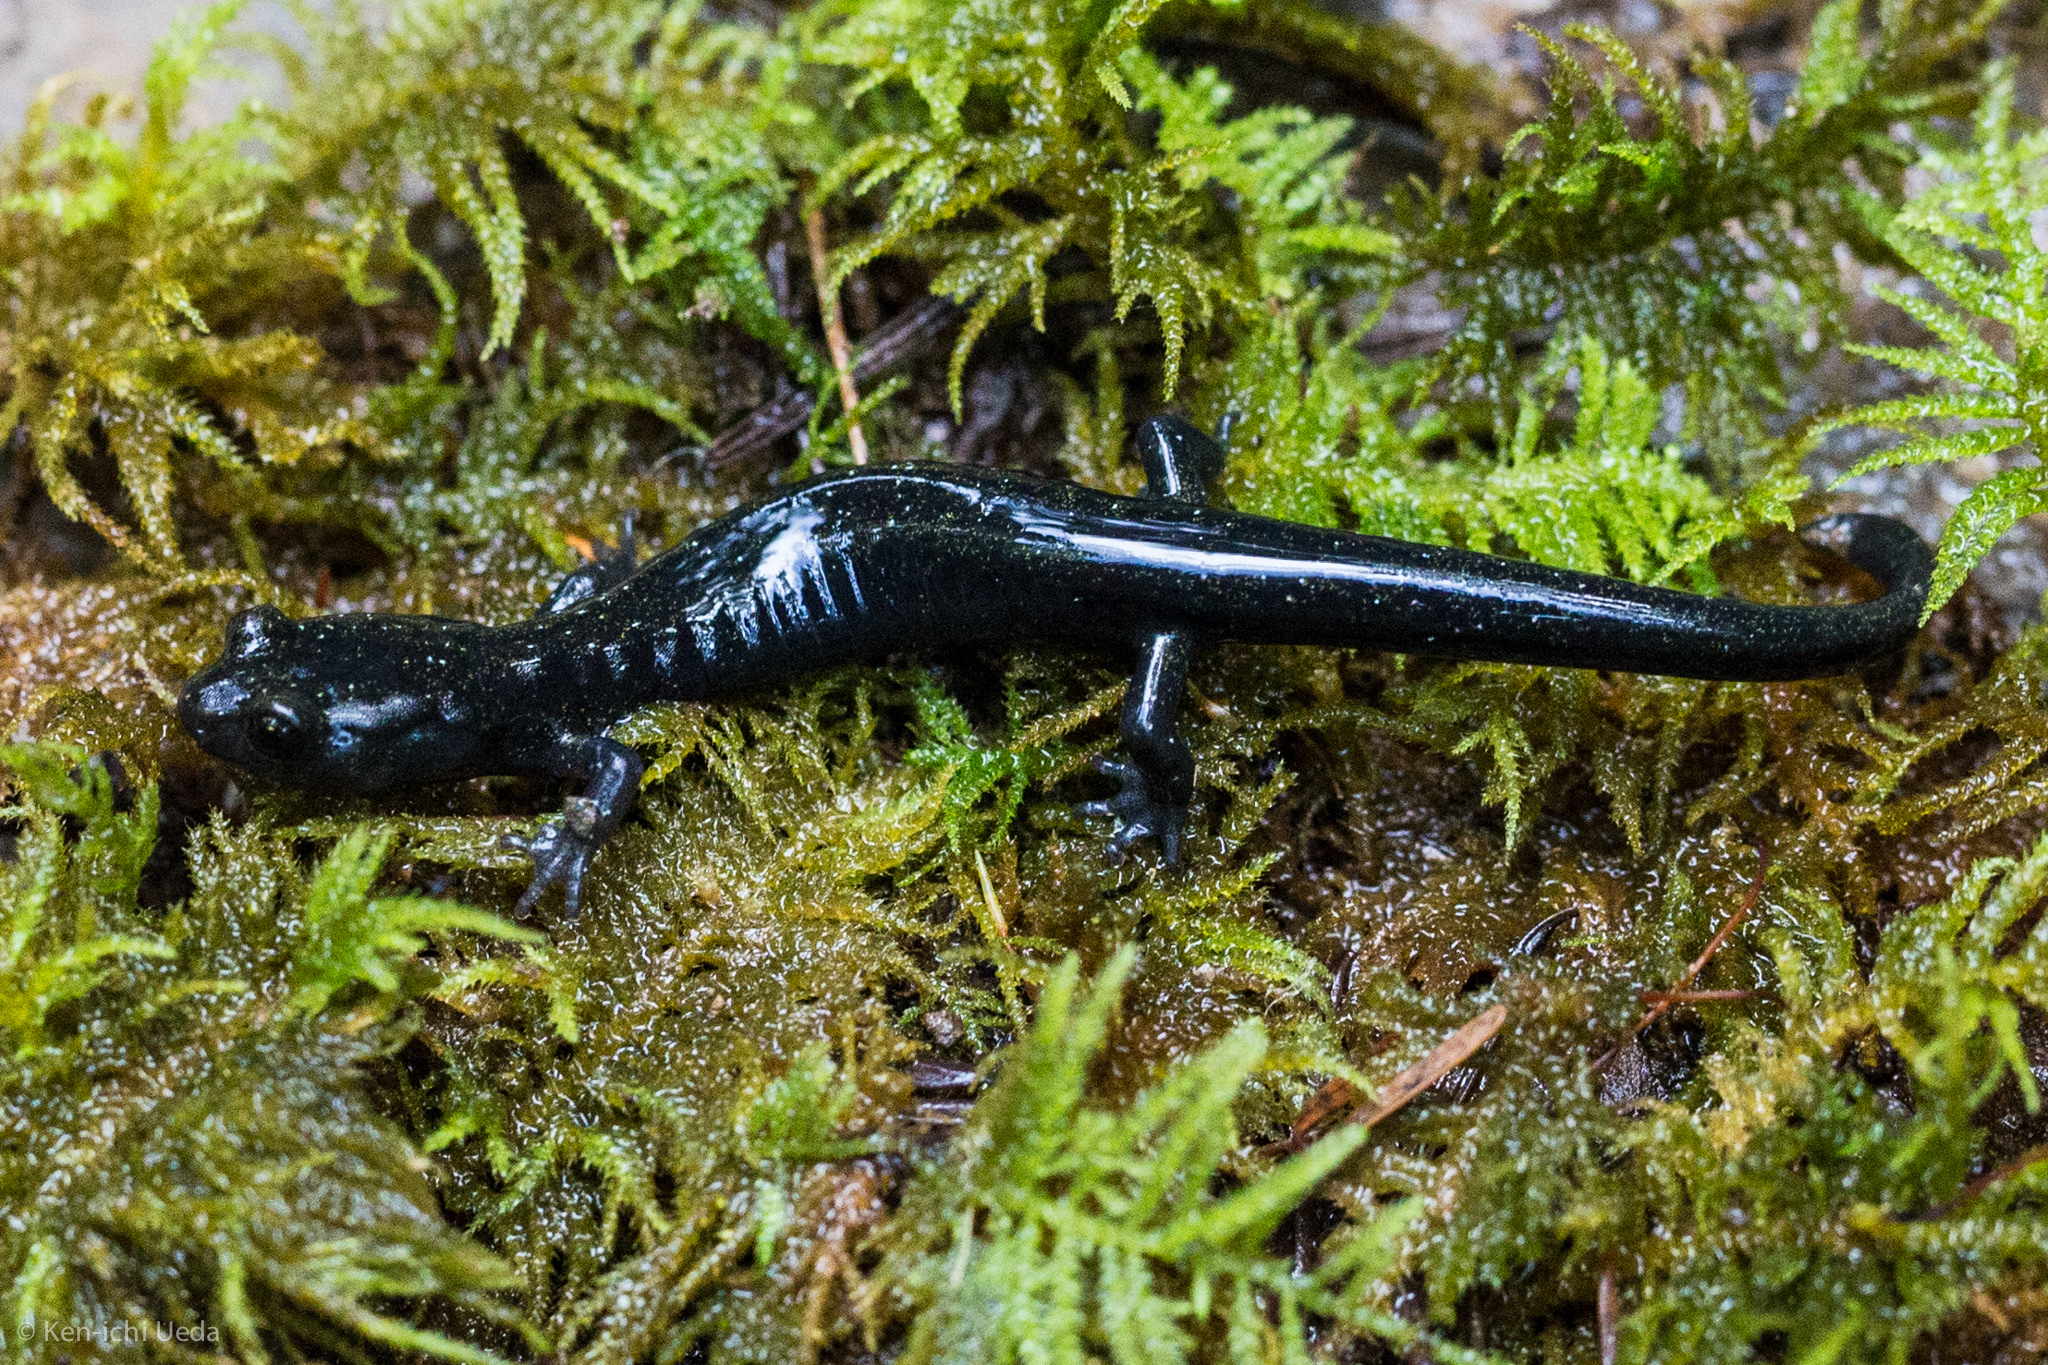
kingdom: Animalia
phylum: Chordata
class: Amphibia
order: Caudata
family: Plethodontidae
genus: Aneides
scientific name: Aneides niger
